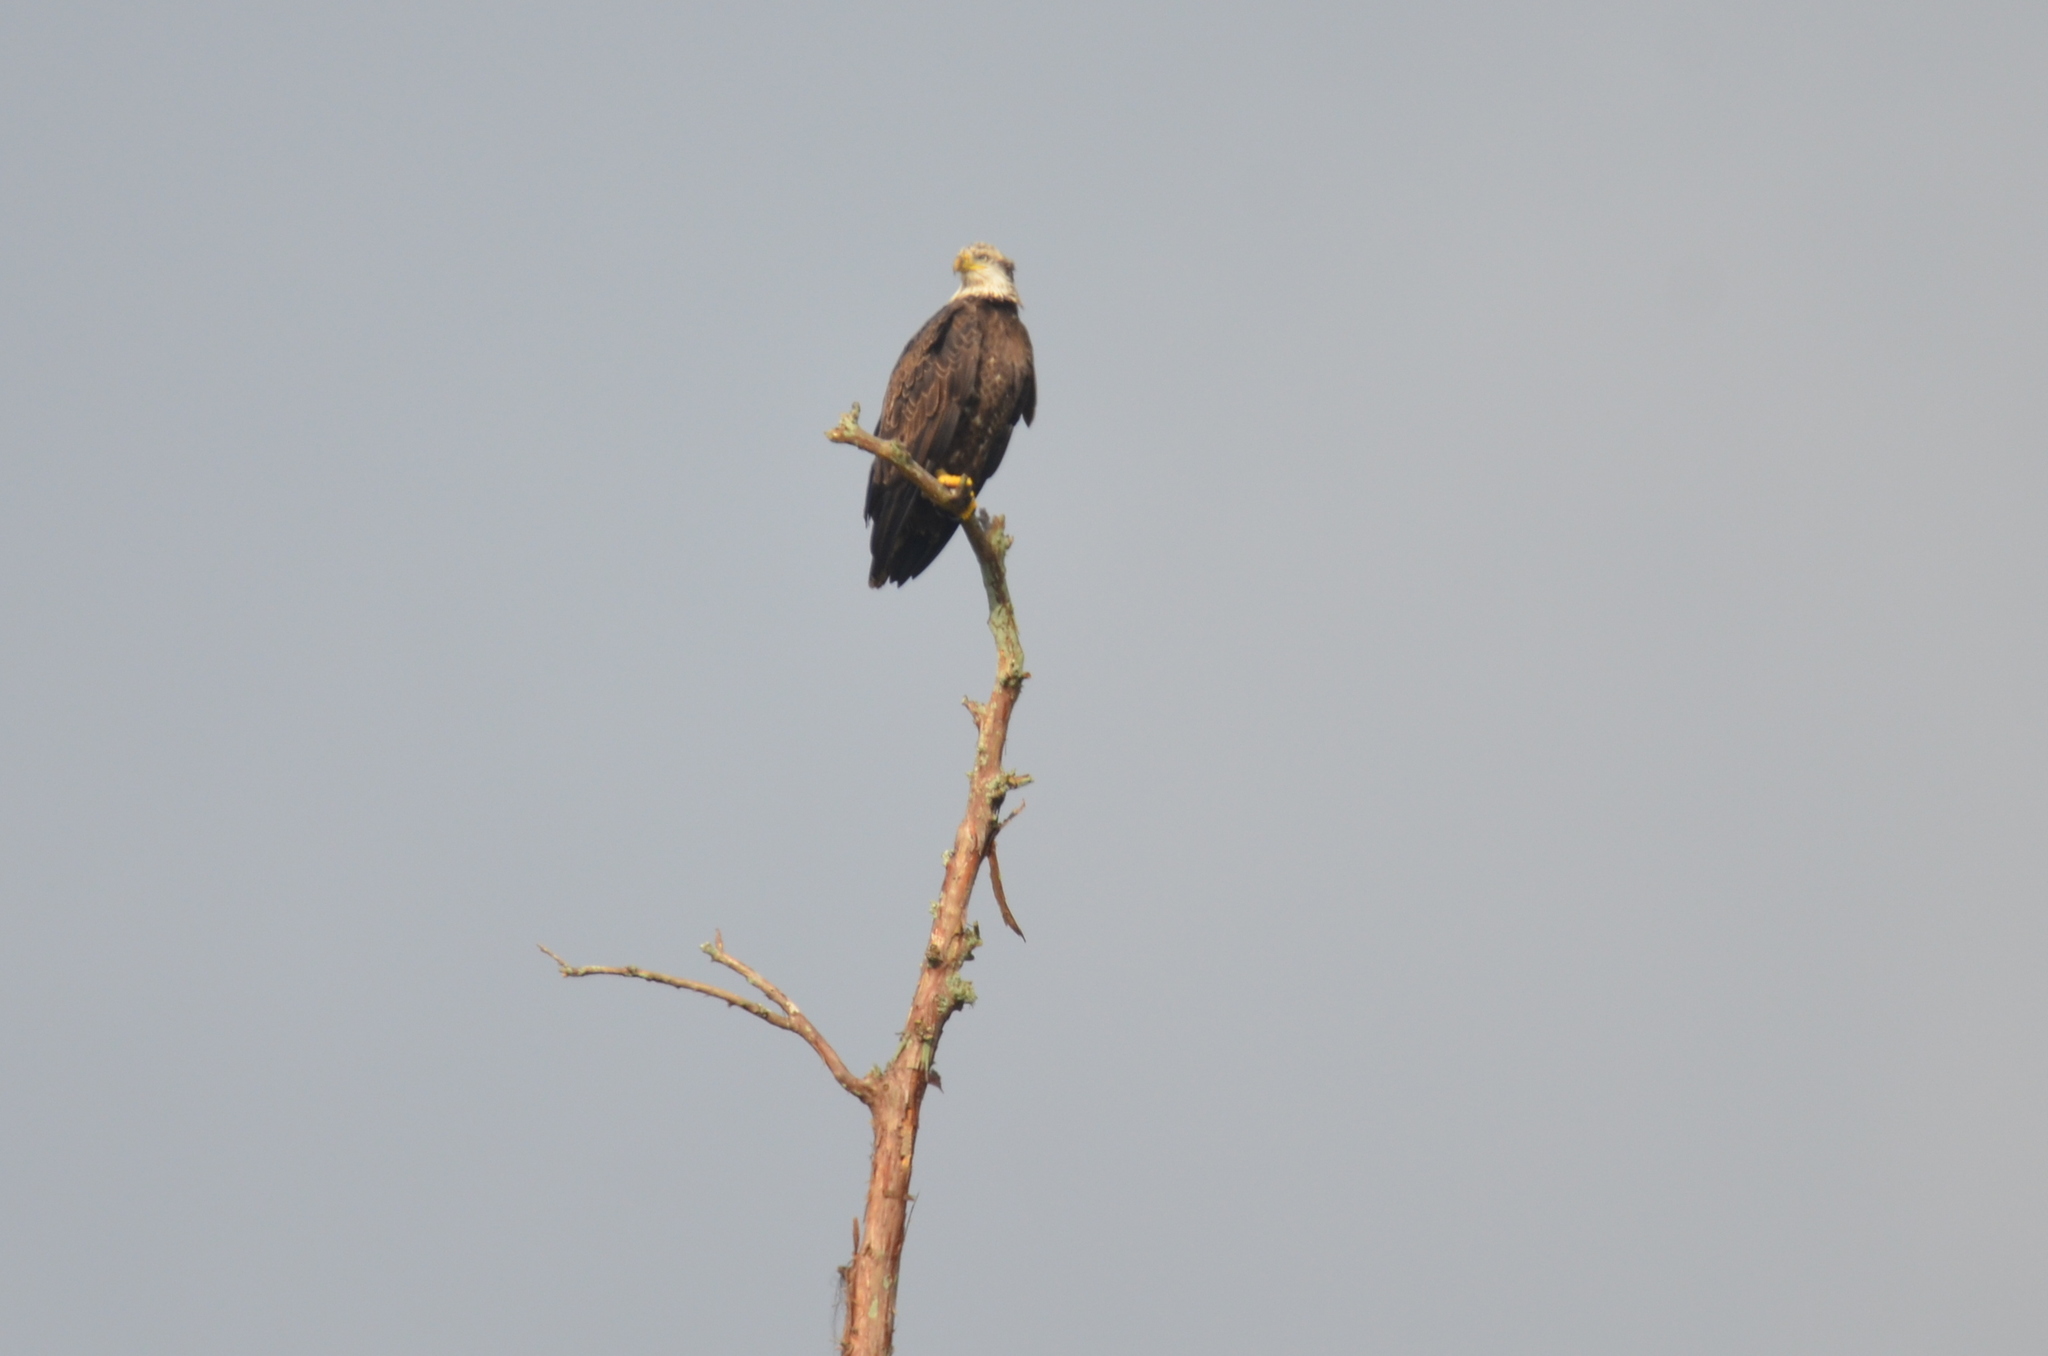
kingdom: Animalia
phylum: Chordata
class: Aves
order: Accipitriformes
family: Accipitridae
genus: Haliaeetus
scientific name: Haliaeetus leucocephalus
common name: Bald eagle
